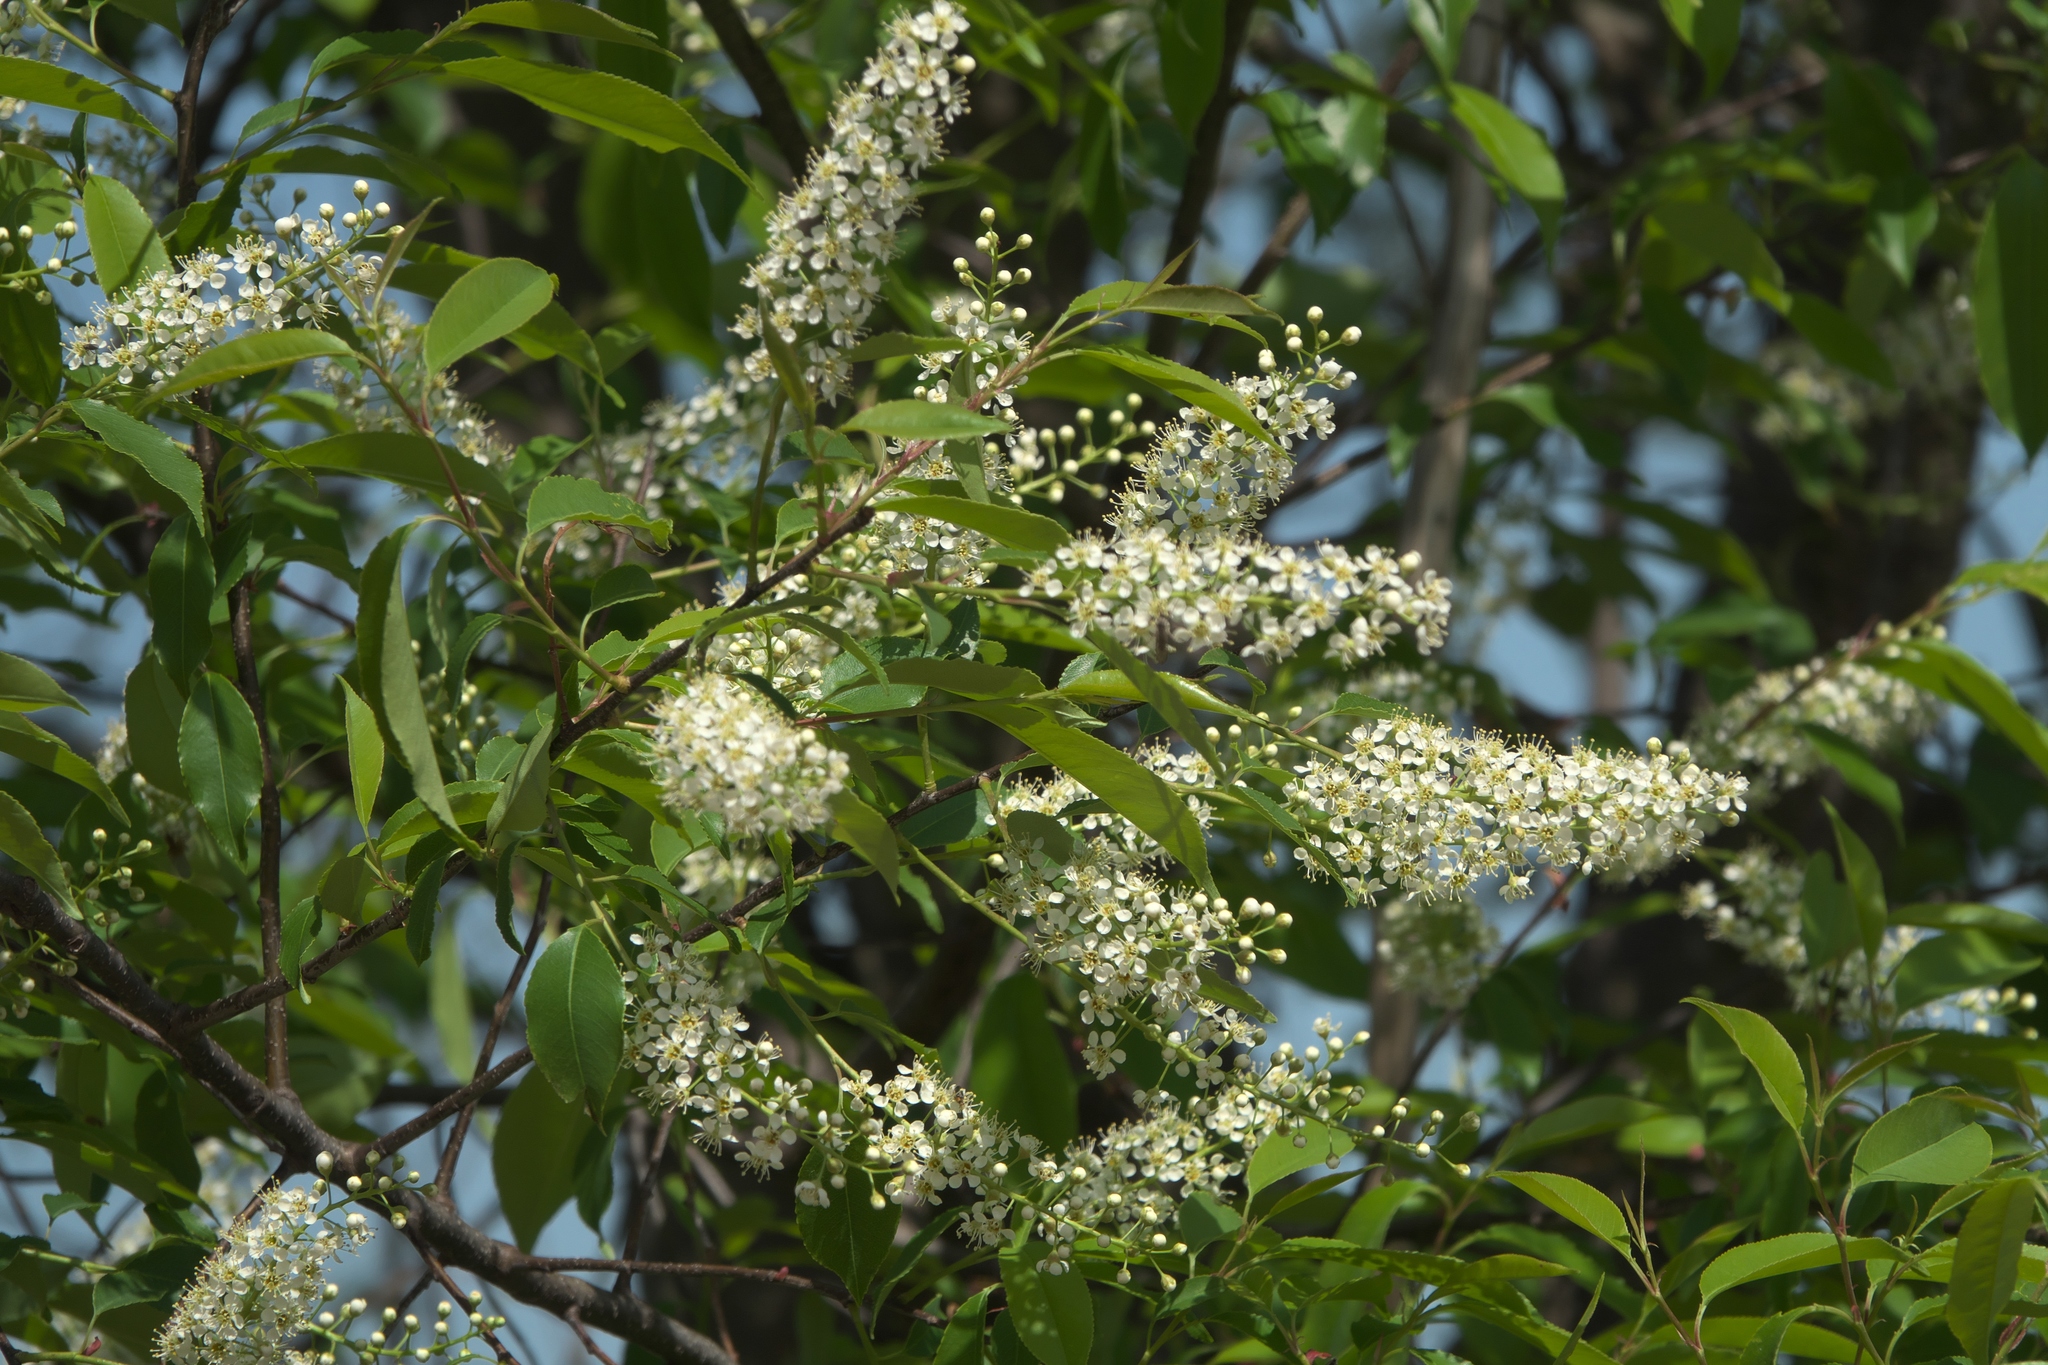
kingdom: Plantae
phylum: Tracheophyta
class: Magnoliopsida
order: Rosales
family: Rosaceae
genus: Prunus
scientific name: Prunus serotina
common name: Black cherry
